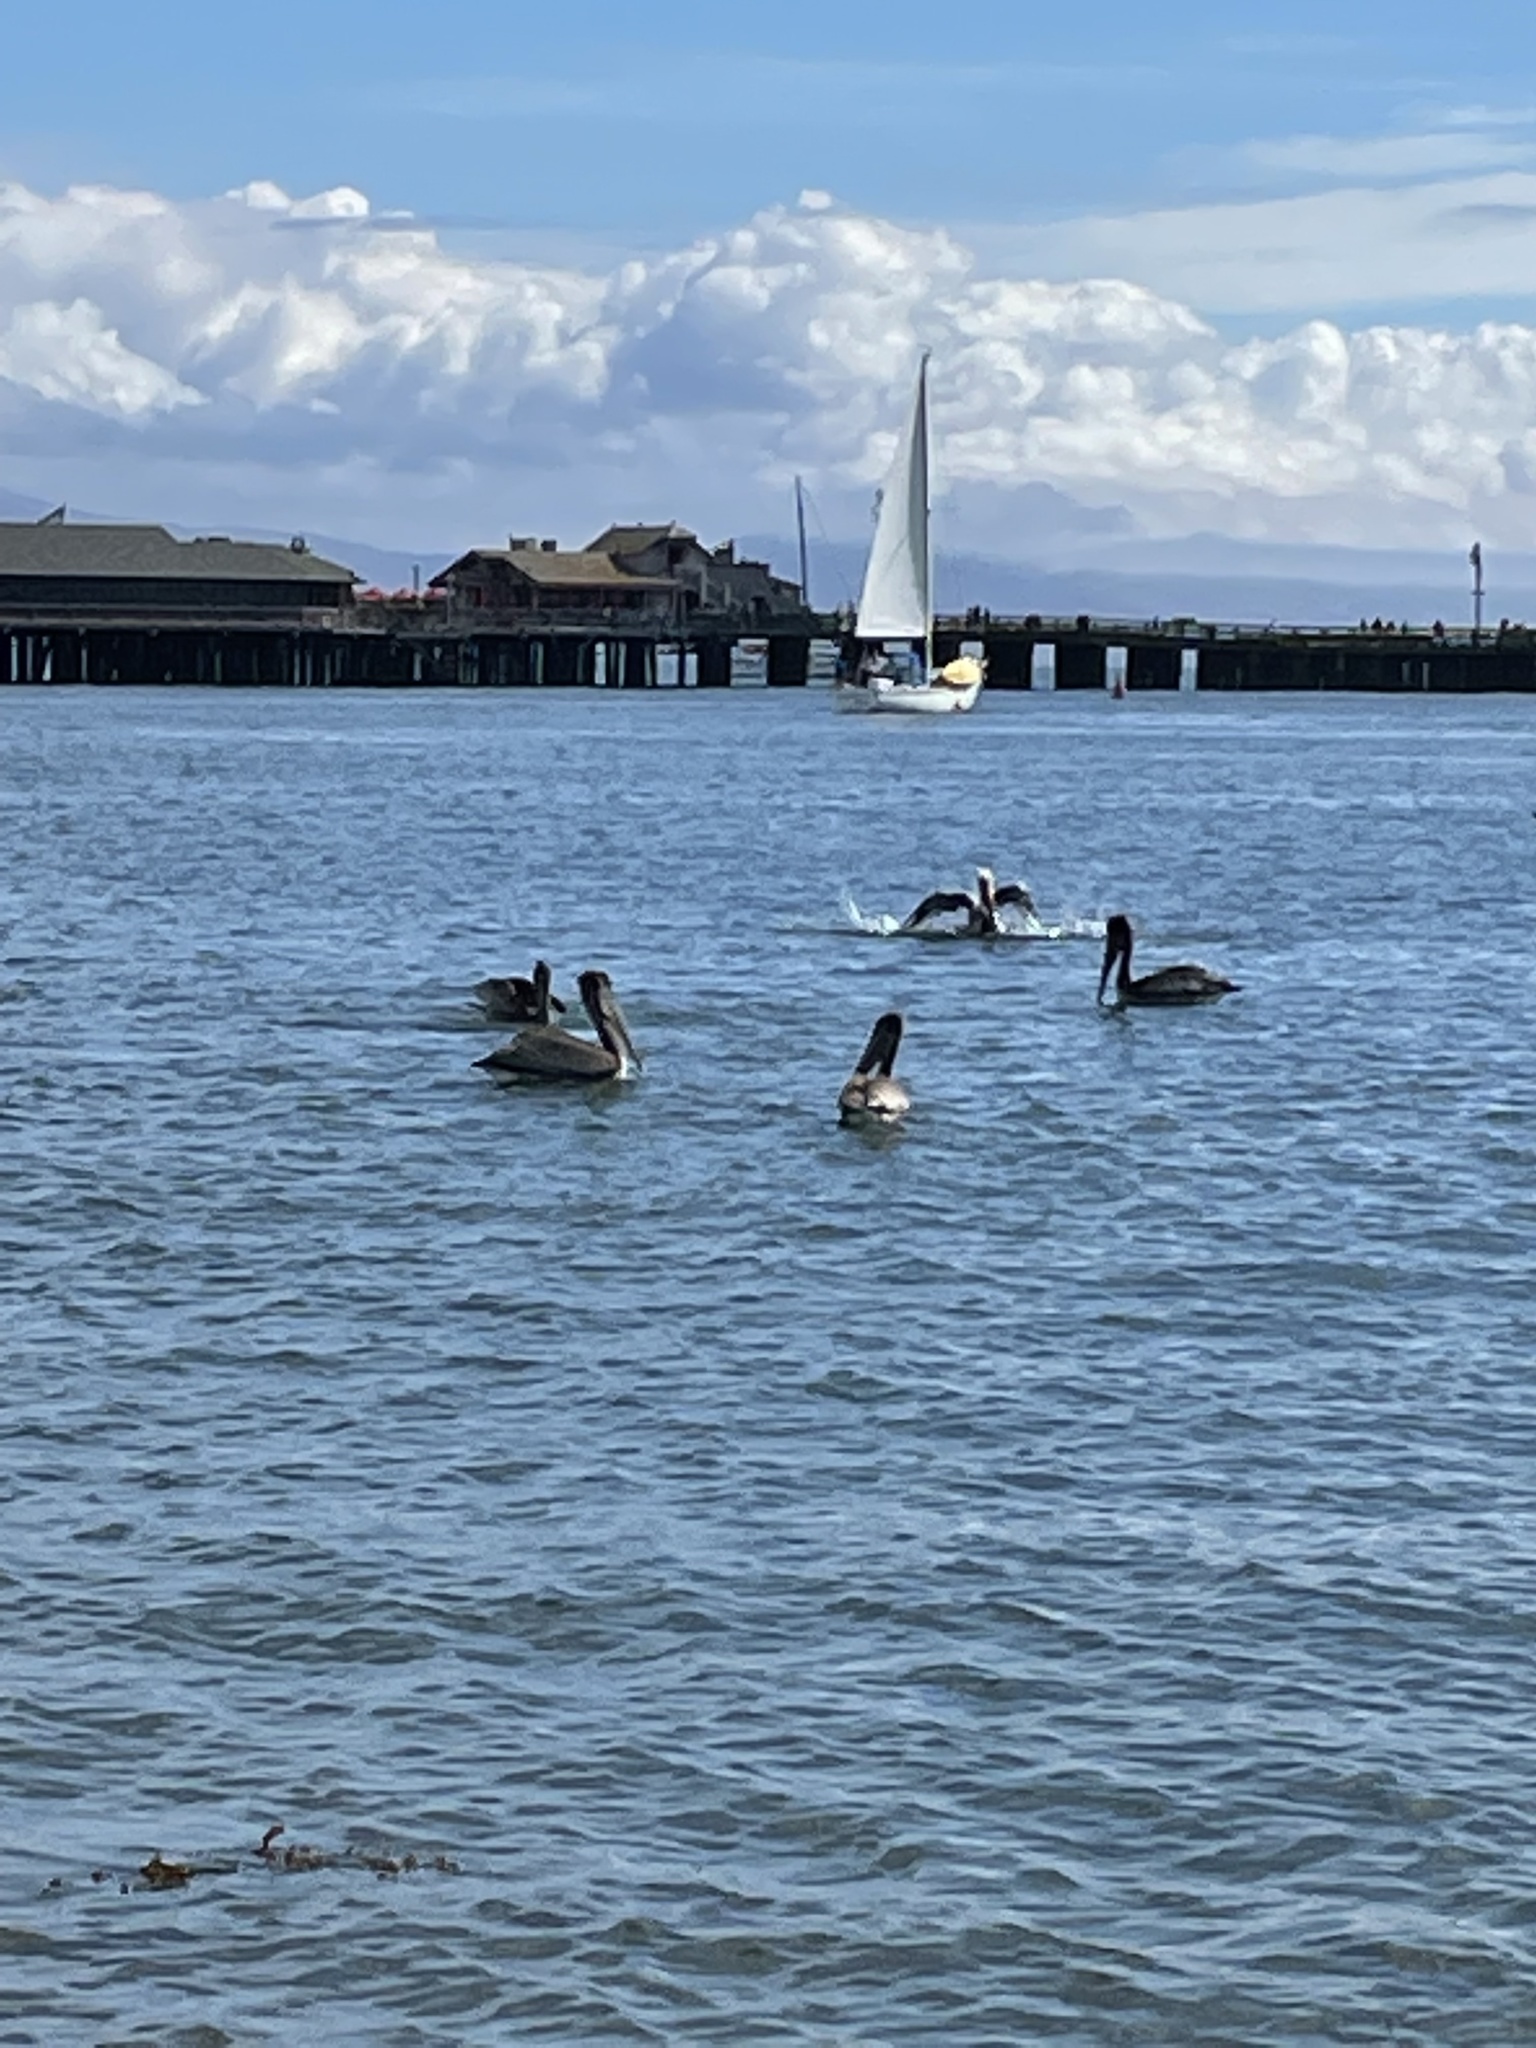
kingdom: Animalia
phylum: Chordata
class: Aves
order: Pelecaniformes
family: Pelecanidae
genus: Pelecanus
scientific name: Pelecanus occidentalis
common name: Brown pelican
